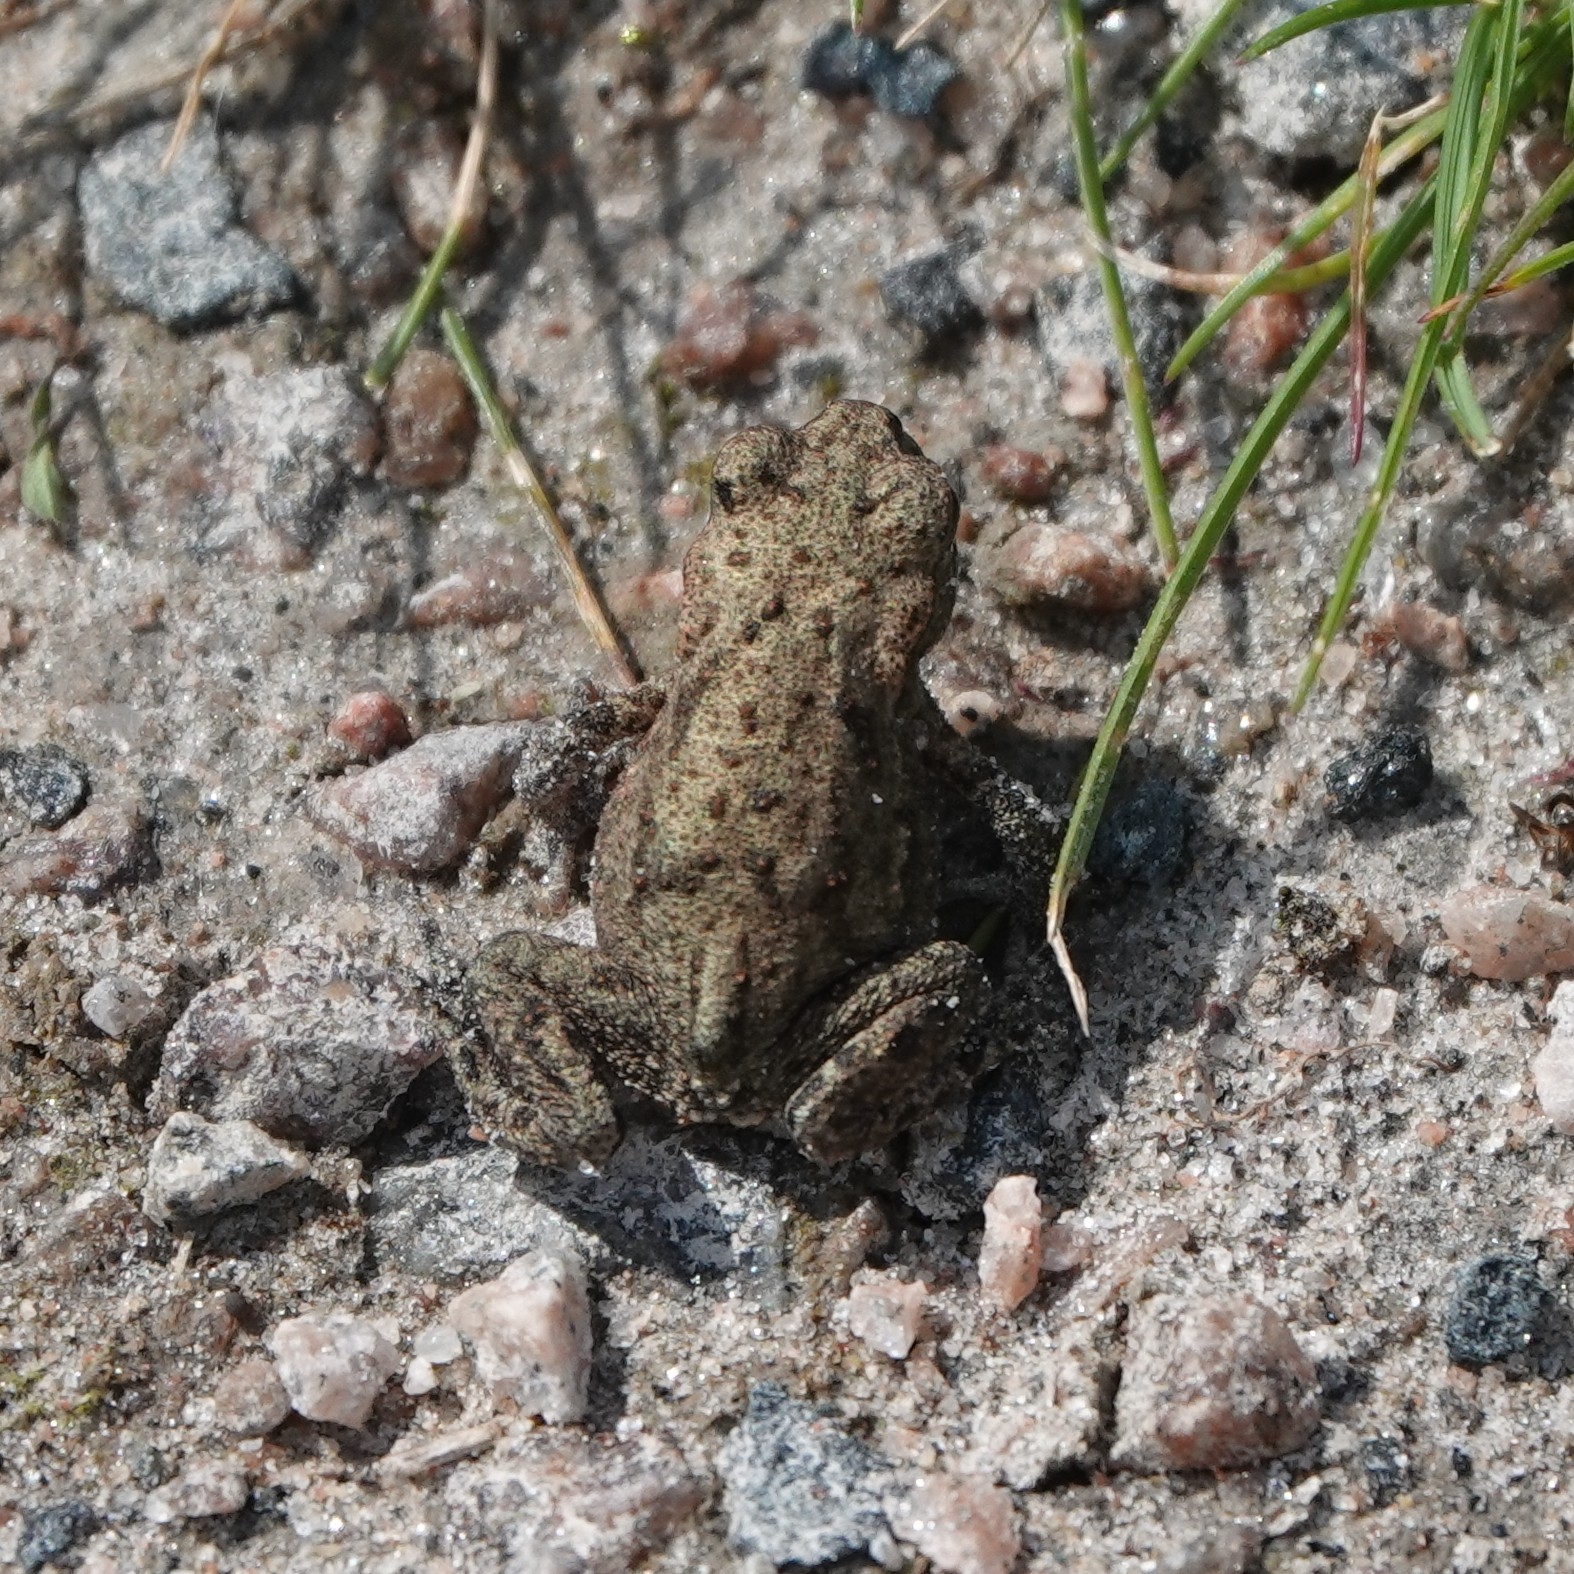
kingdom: Animalia
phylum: Chordata
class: Amphibia
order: Anura
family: Bufonidae
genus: Bufo
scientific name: Bufo bufo
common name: Common toad
